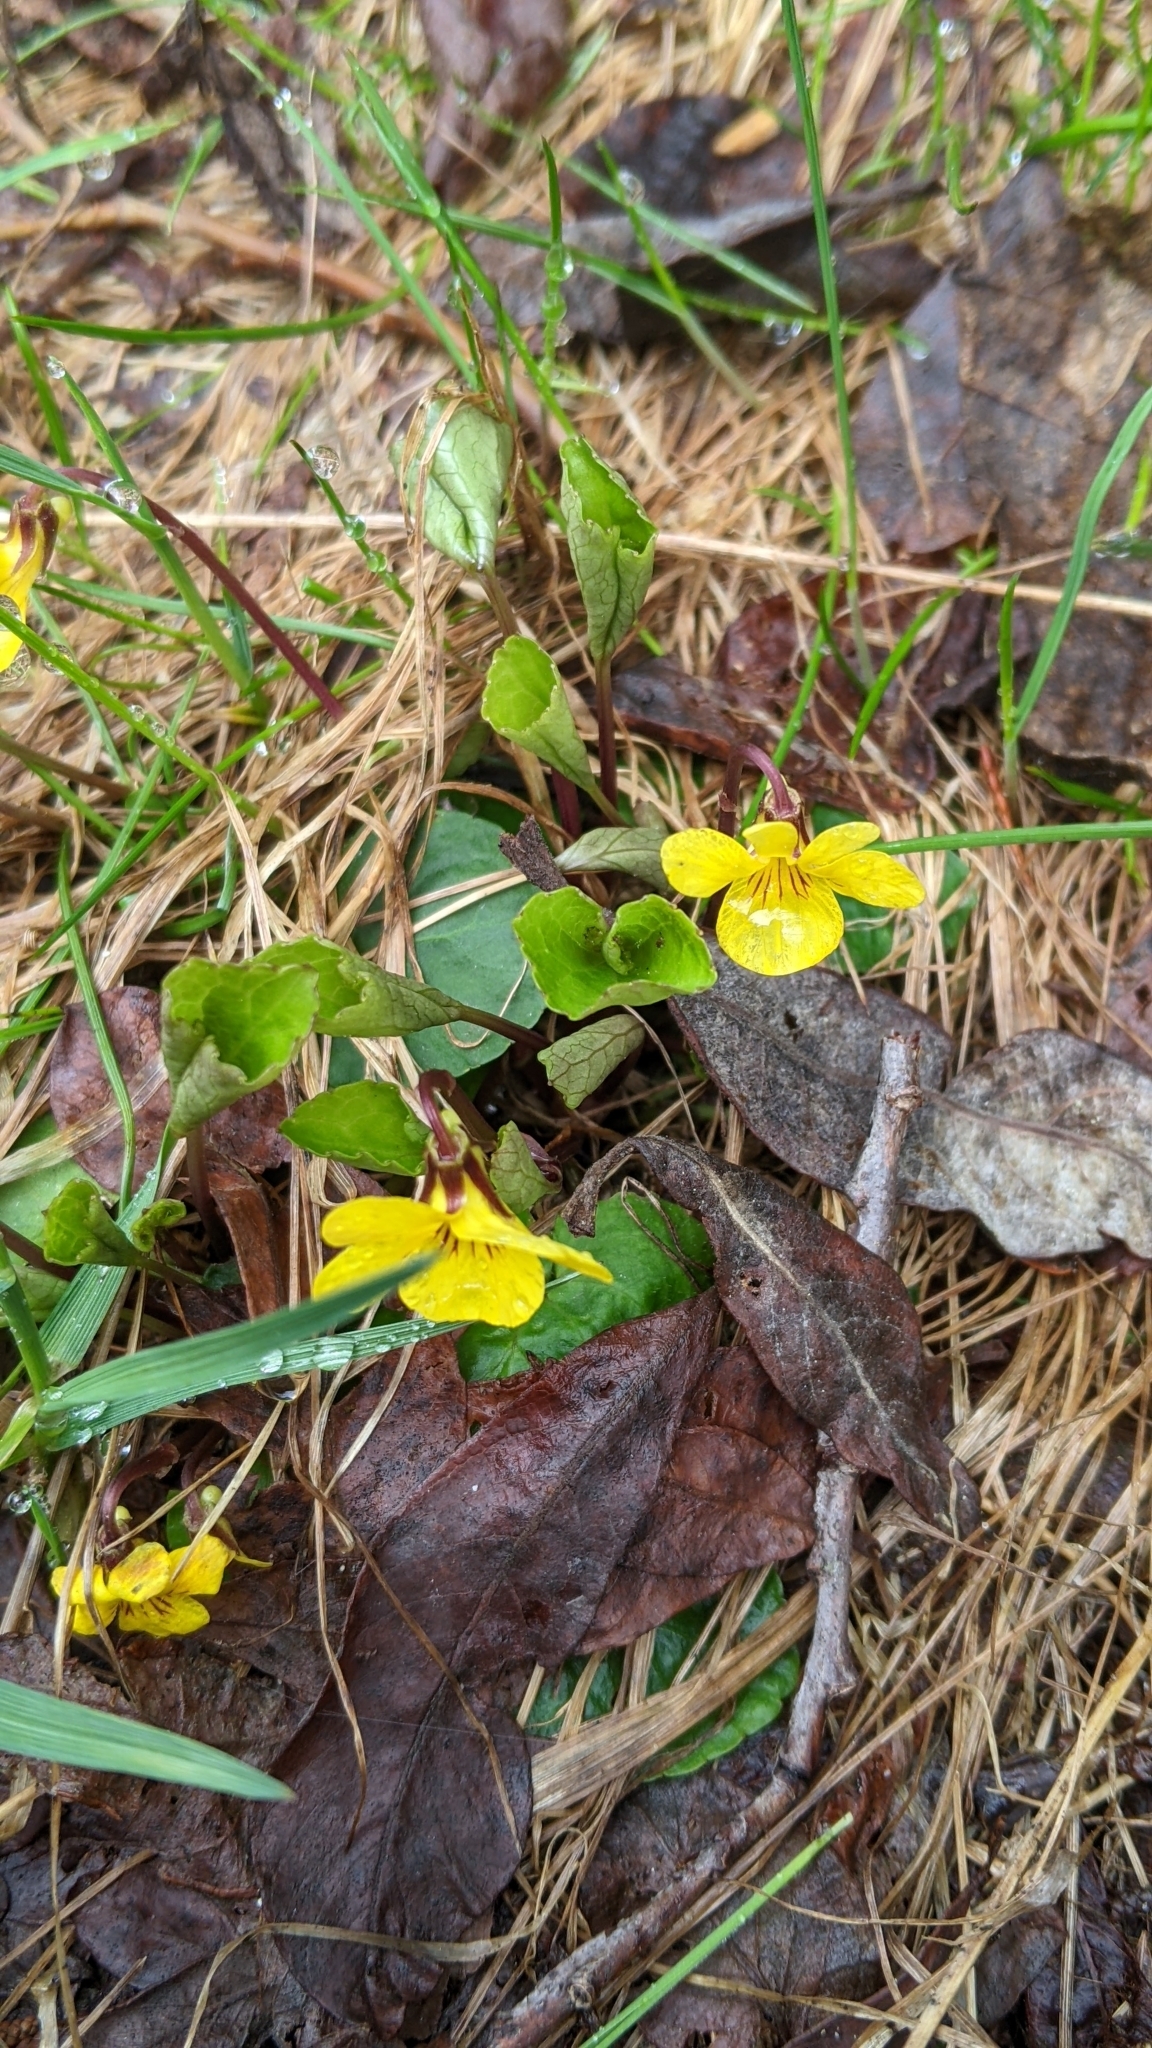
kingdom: Plantae
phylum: Tracheophyta
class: Magnoliopsida
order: Malpighiales
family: Violaceae
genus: Viola
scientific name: Viola orbiculata
